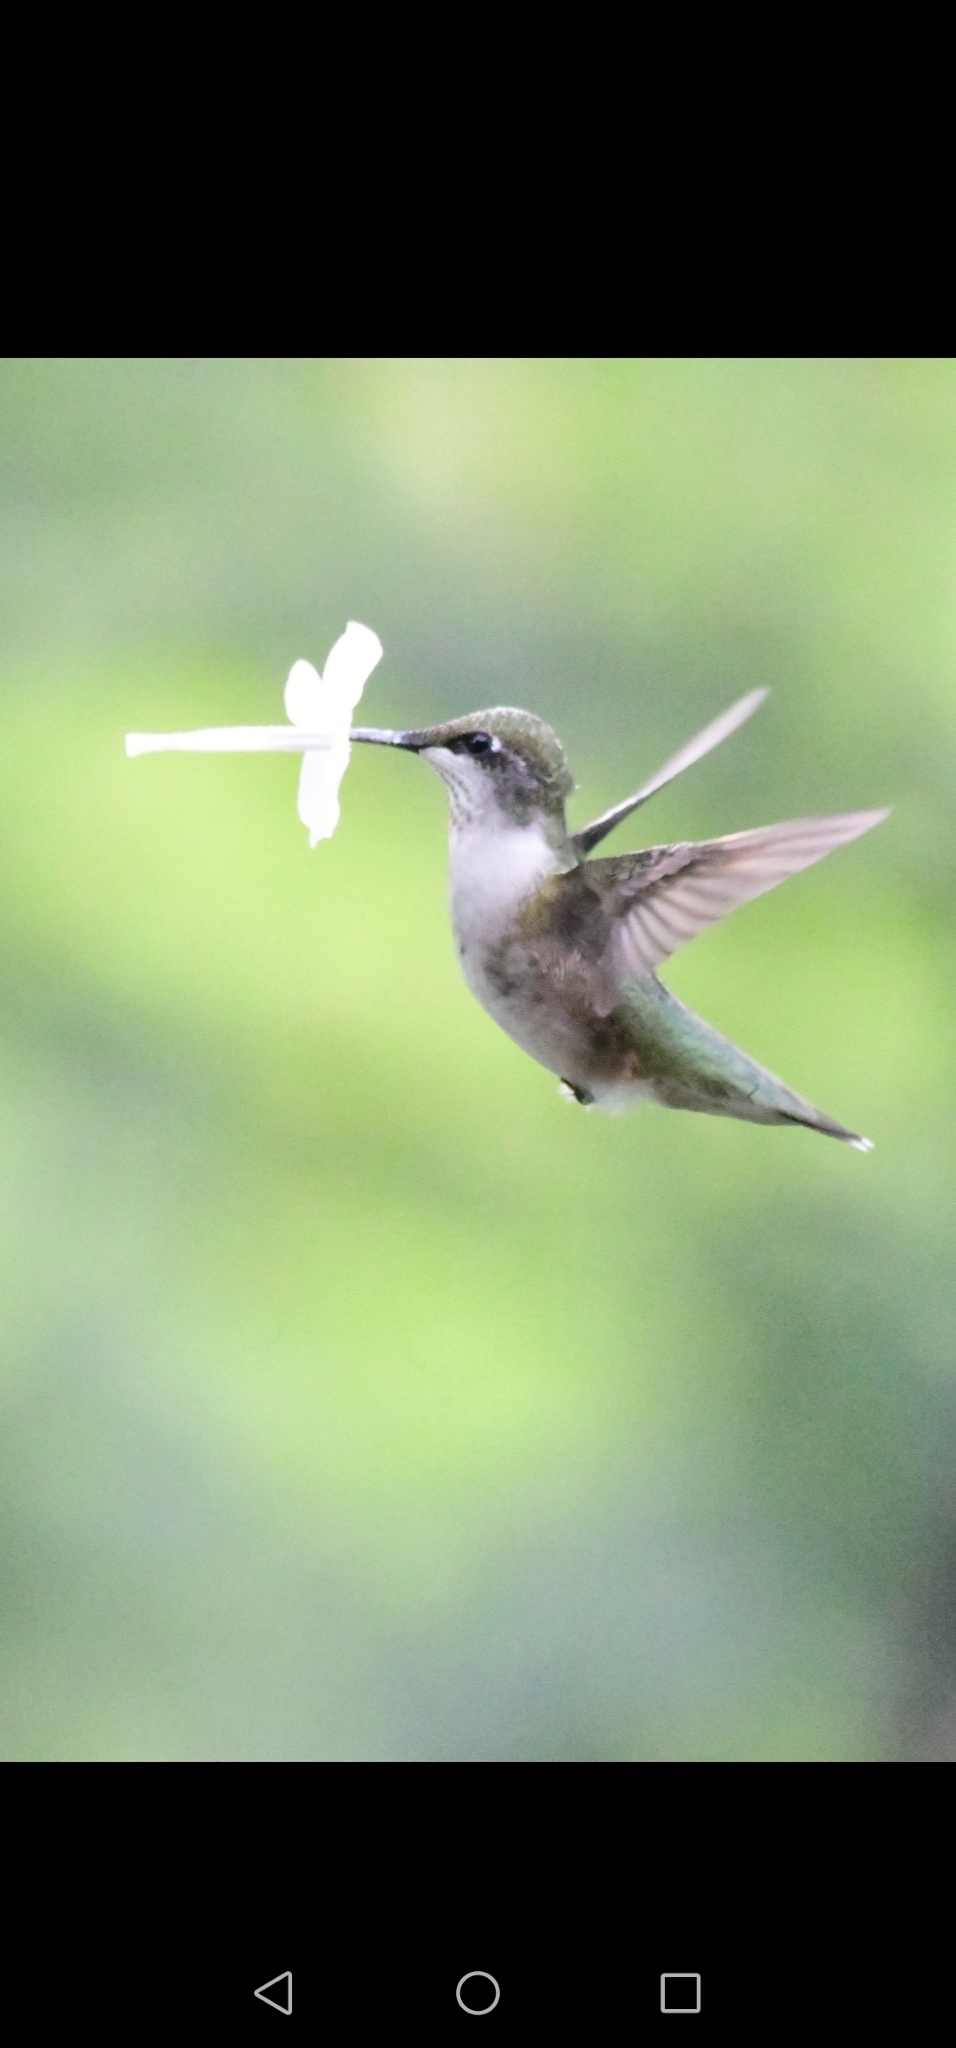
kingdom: Animalia
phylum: Chordata
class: Aves
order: Apodiformes
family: Trochilidae
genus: Archilochus
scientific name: Archilochus colubris
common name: Ruby-throated hummingbird
